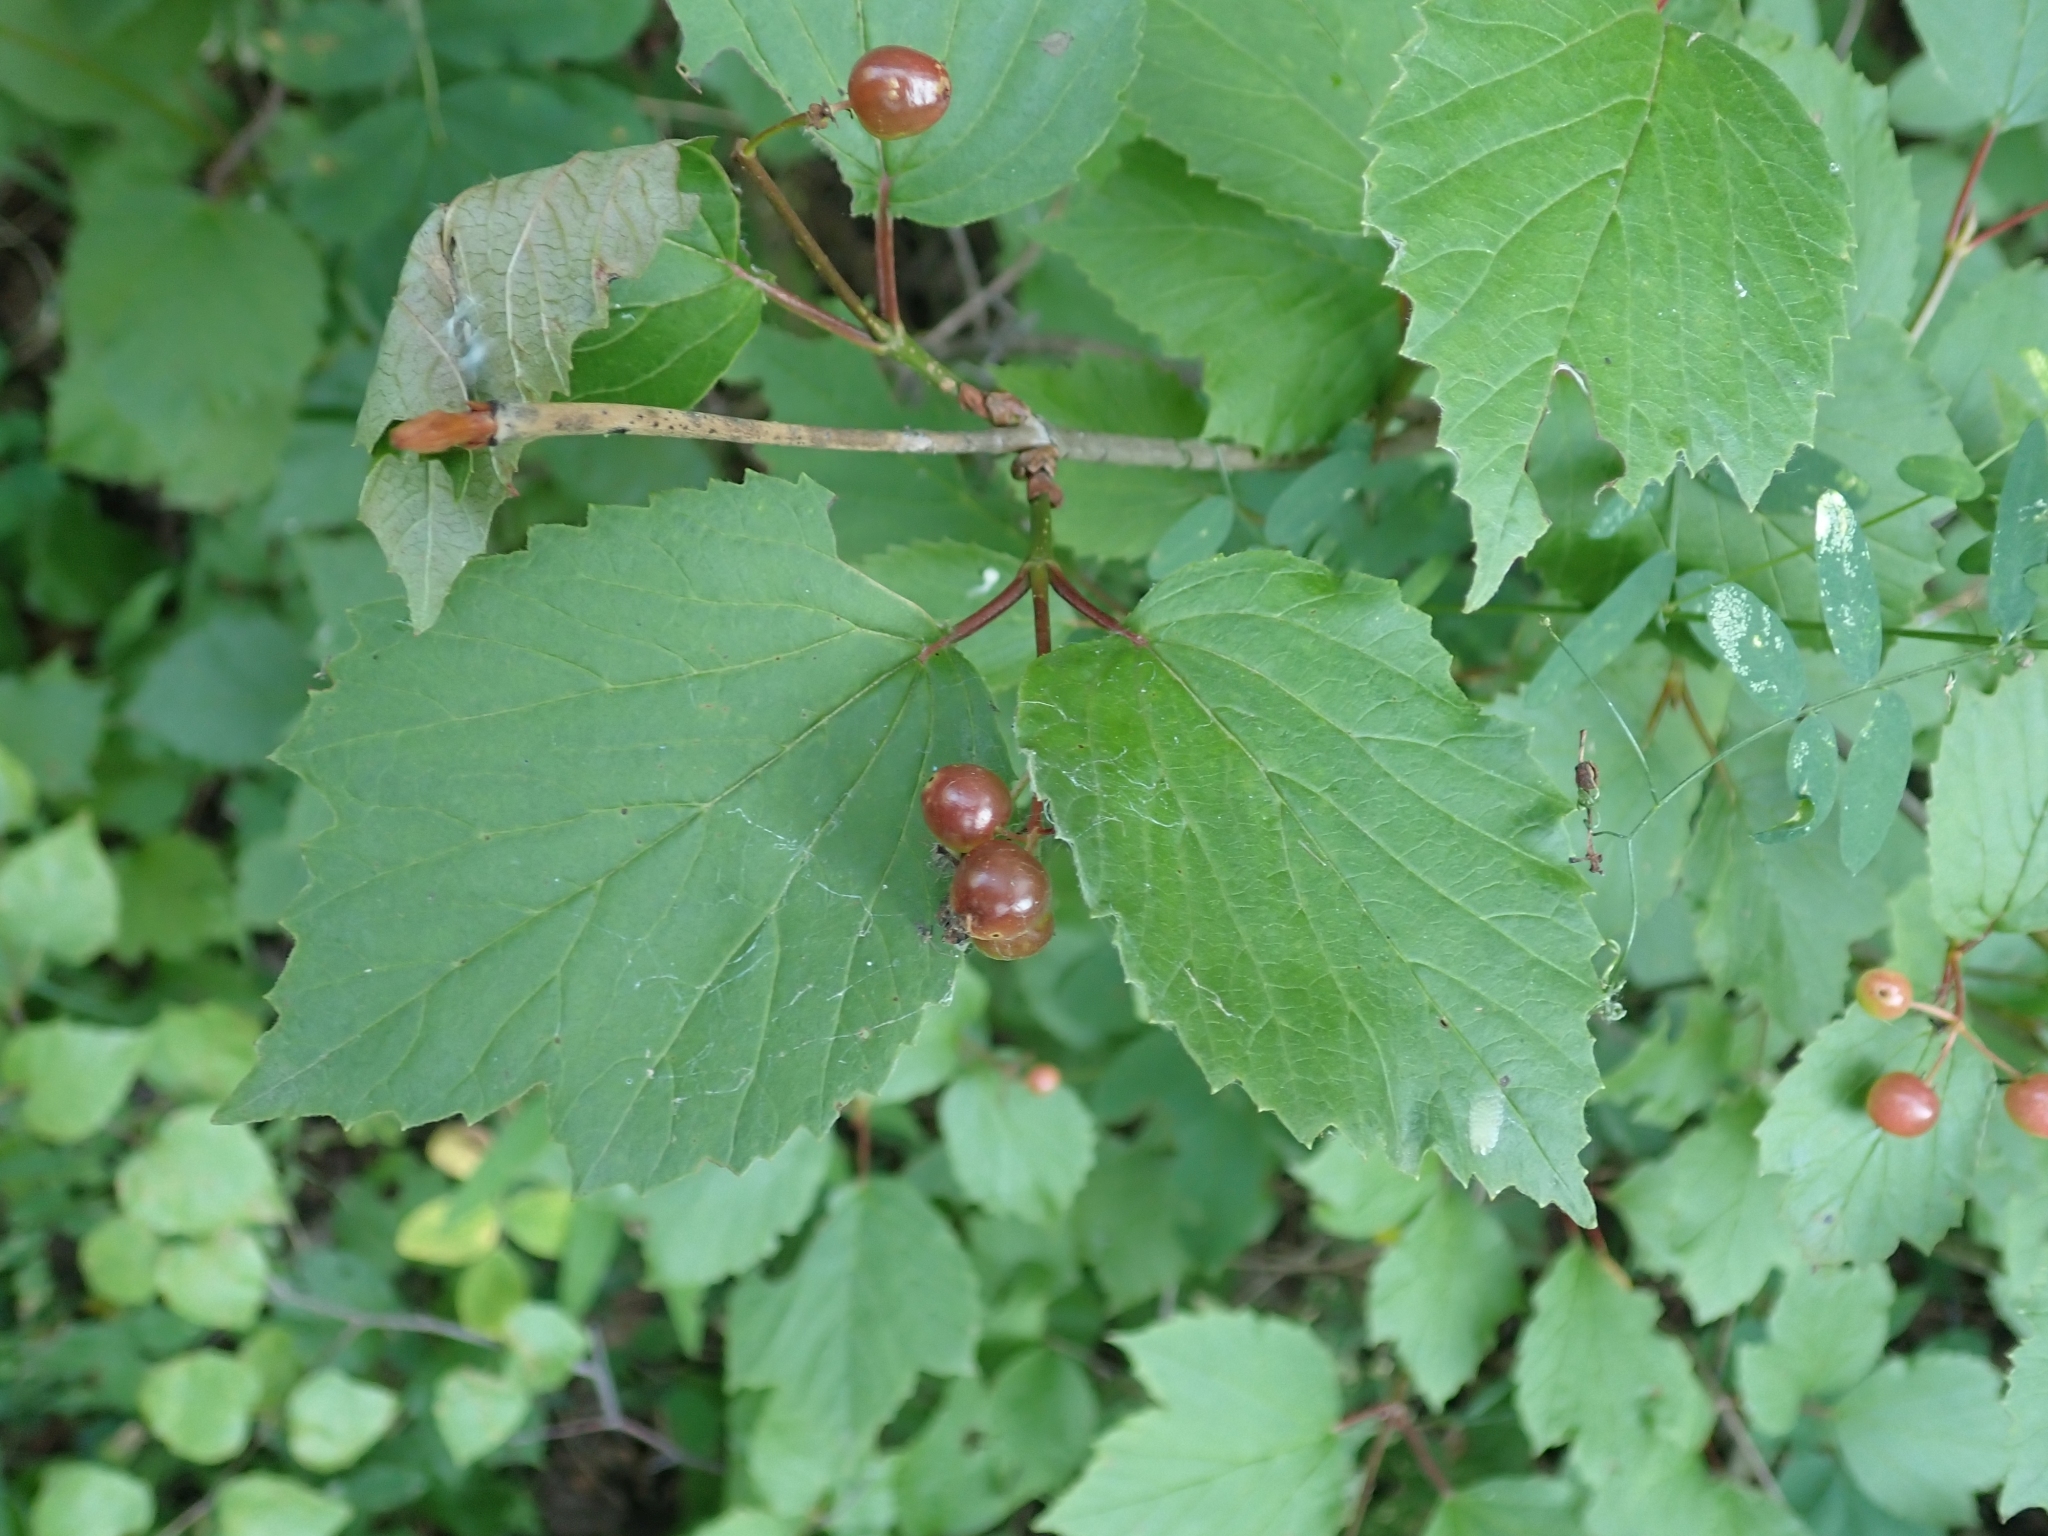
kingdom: Plantae
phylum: Tracheophyta
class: Magnoliopsida
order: Dipsacales
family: Viburnaceae
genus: Viburnum
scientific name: Viburnum edule
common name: Mooseberry
